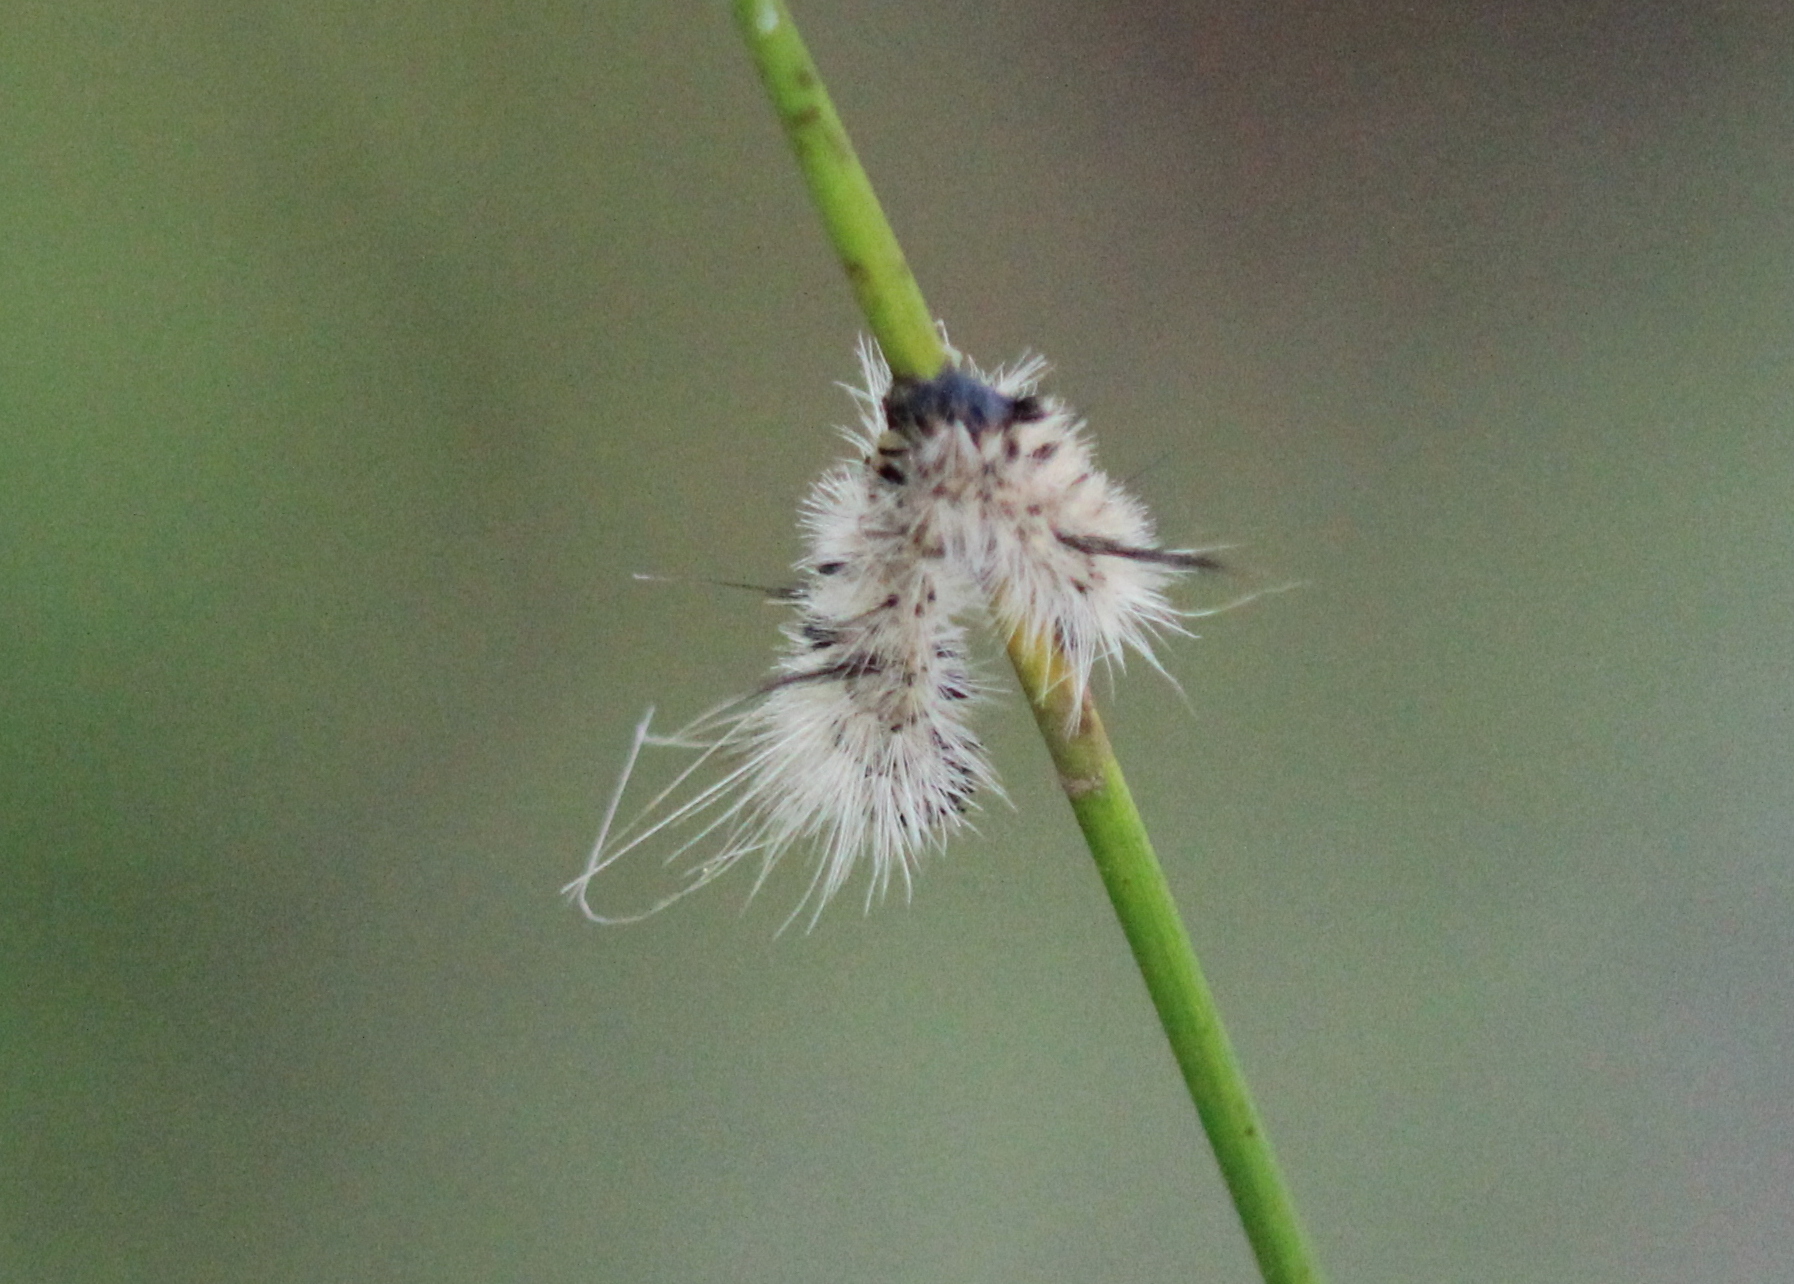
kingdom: Animalia
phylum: Arthropoda
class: Insecta
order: Lepidoptera
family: Erebidae
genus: Lophocampa
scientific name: Lophocampa caryae
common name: Hickory tussock moth
